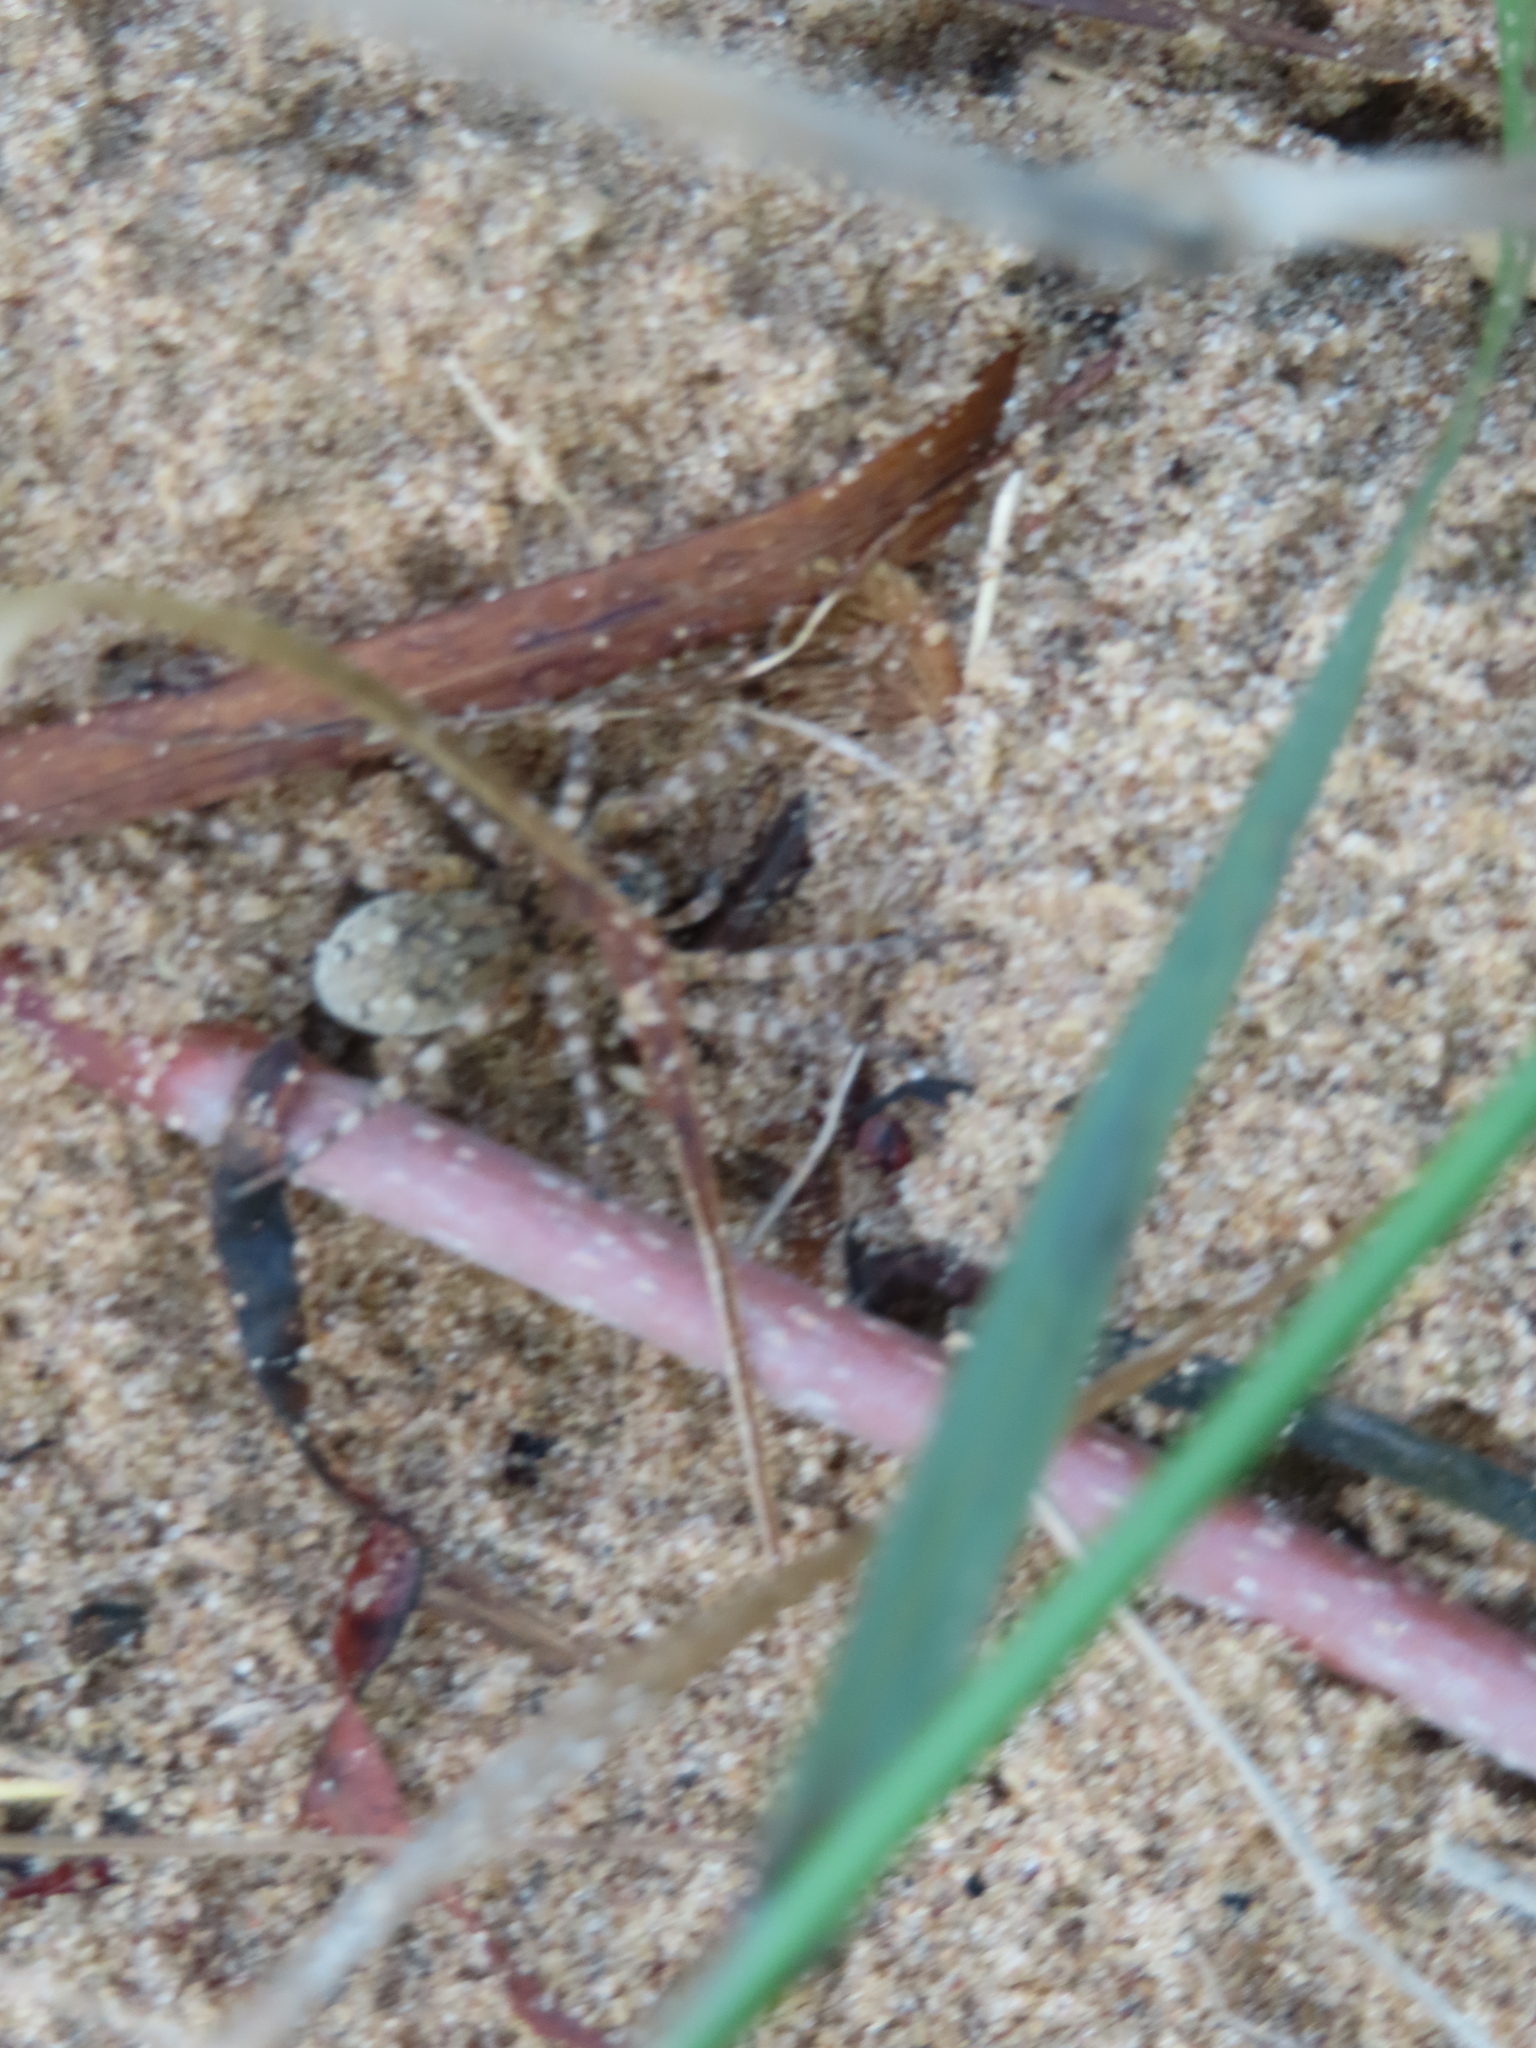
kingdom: Animalia
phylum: Arthropoda
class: Arachnida
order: Araneae
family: Lycosidae
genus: Arctosa
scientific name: Arctosa littoralis
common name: Wolf spiders
